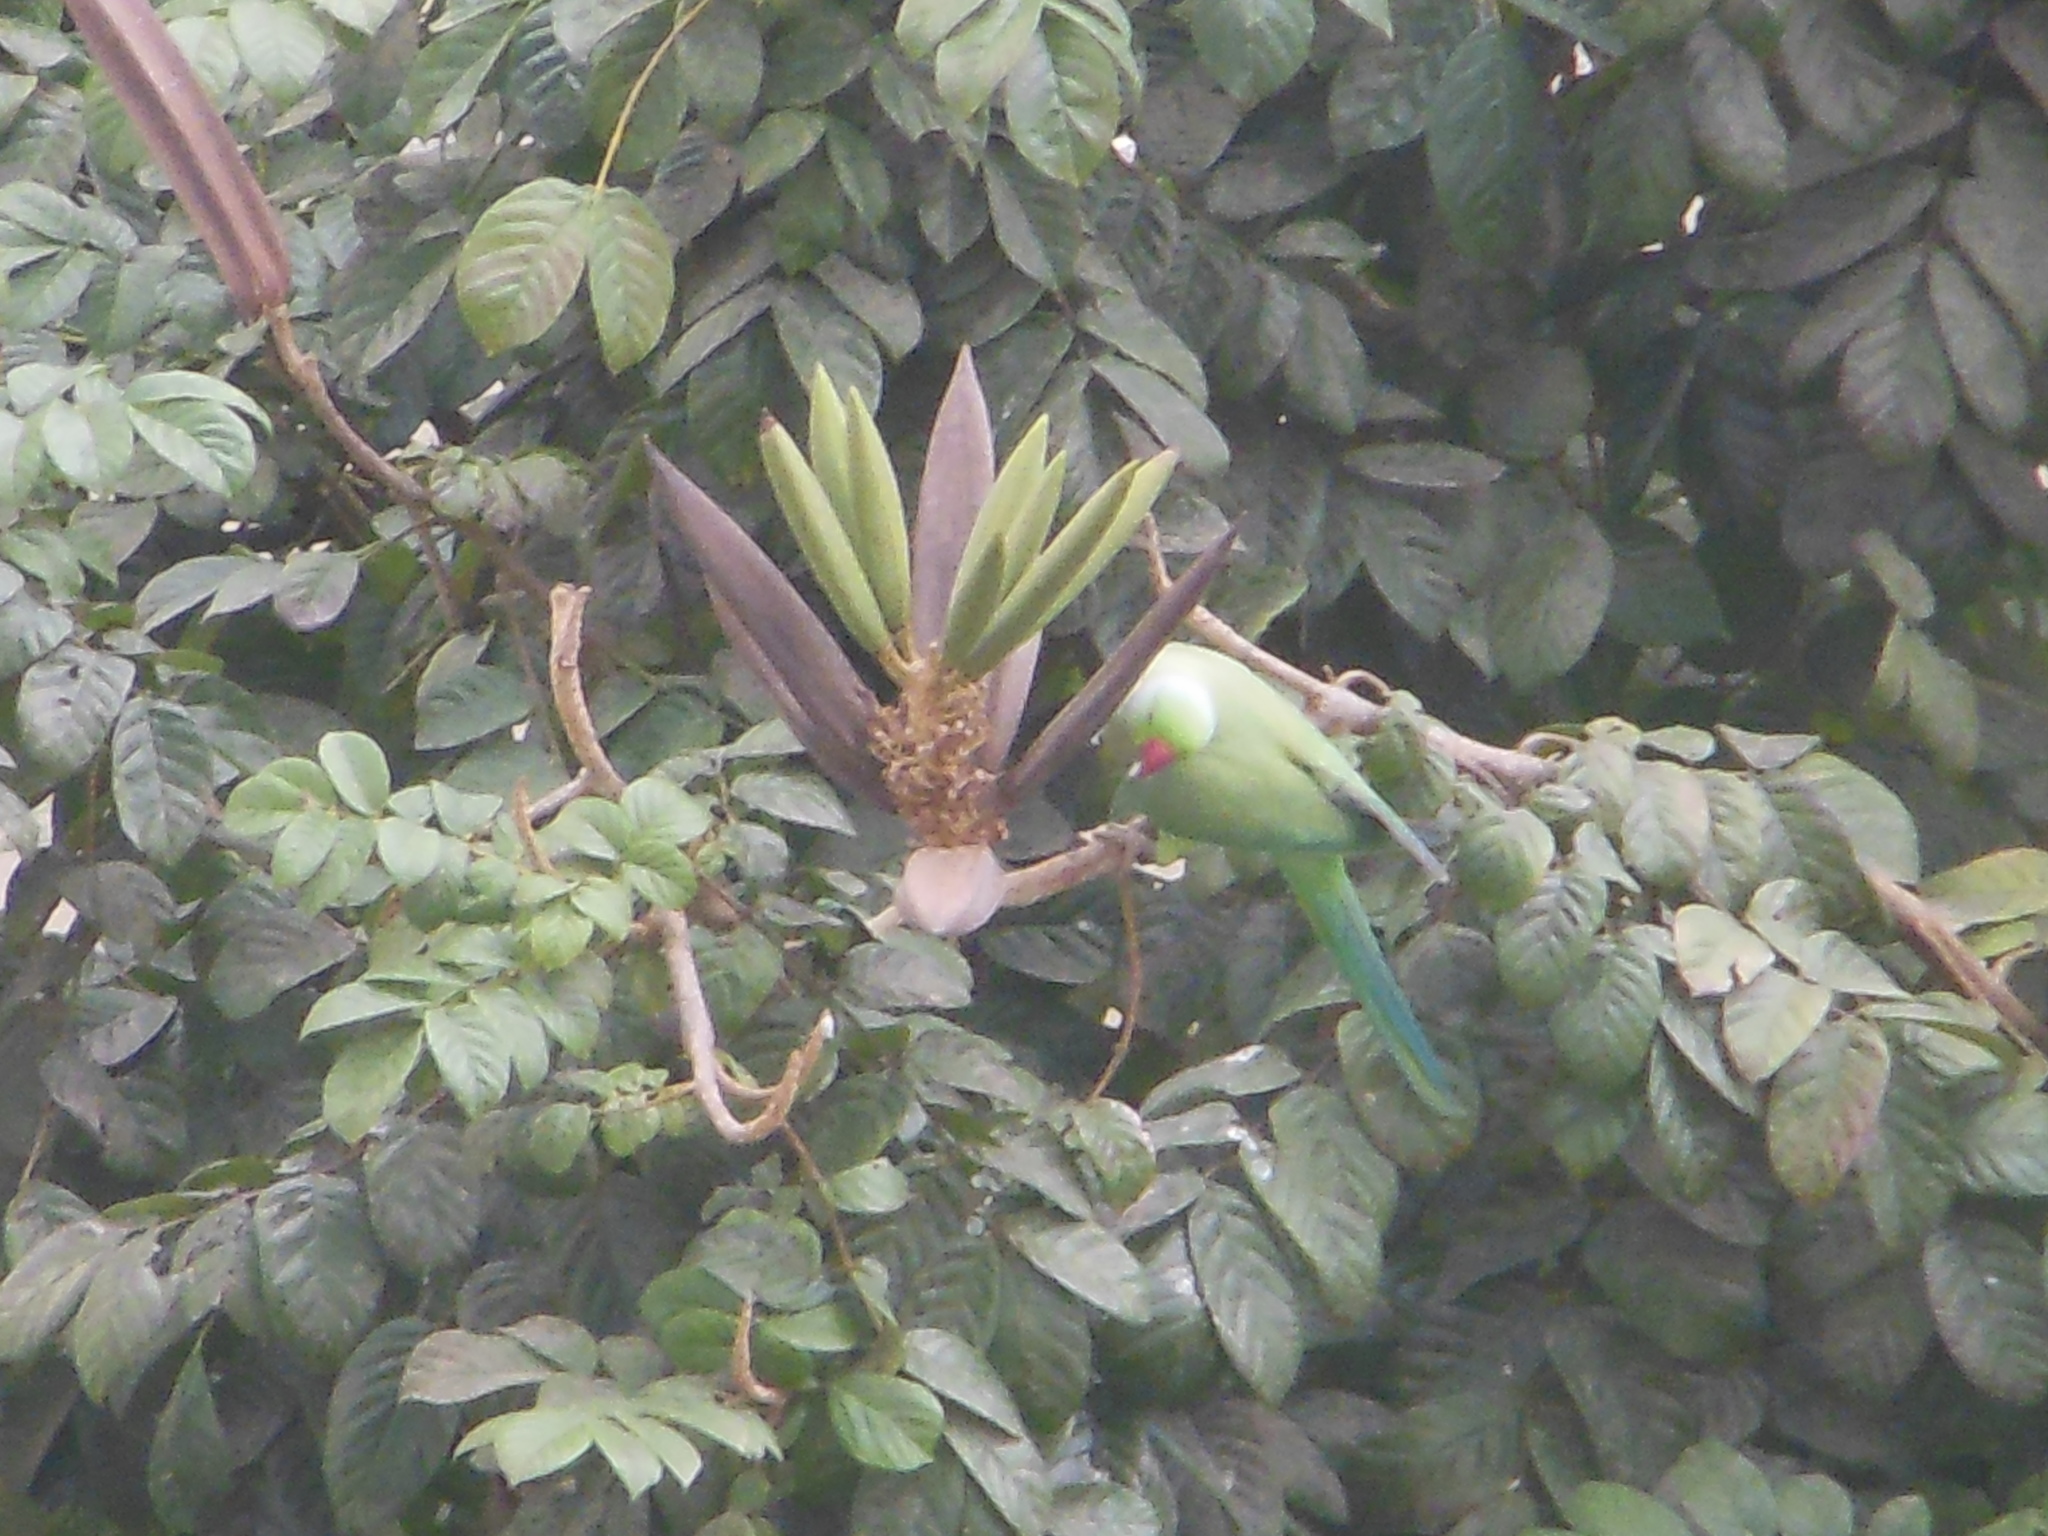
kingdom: Animalia
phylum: Chordata
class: Aves
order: Psittaciformes
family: Psittacidae
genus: Psittacula
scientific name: Psittacula krameri
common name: Rose-ringed parakeet
